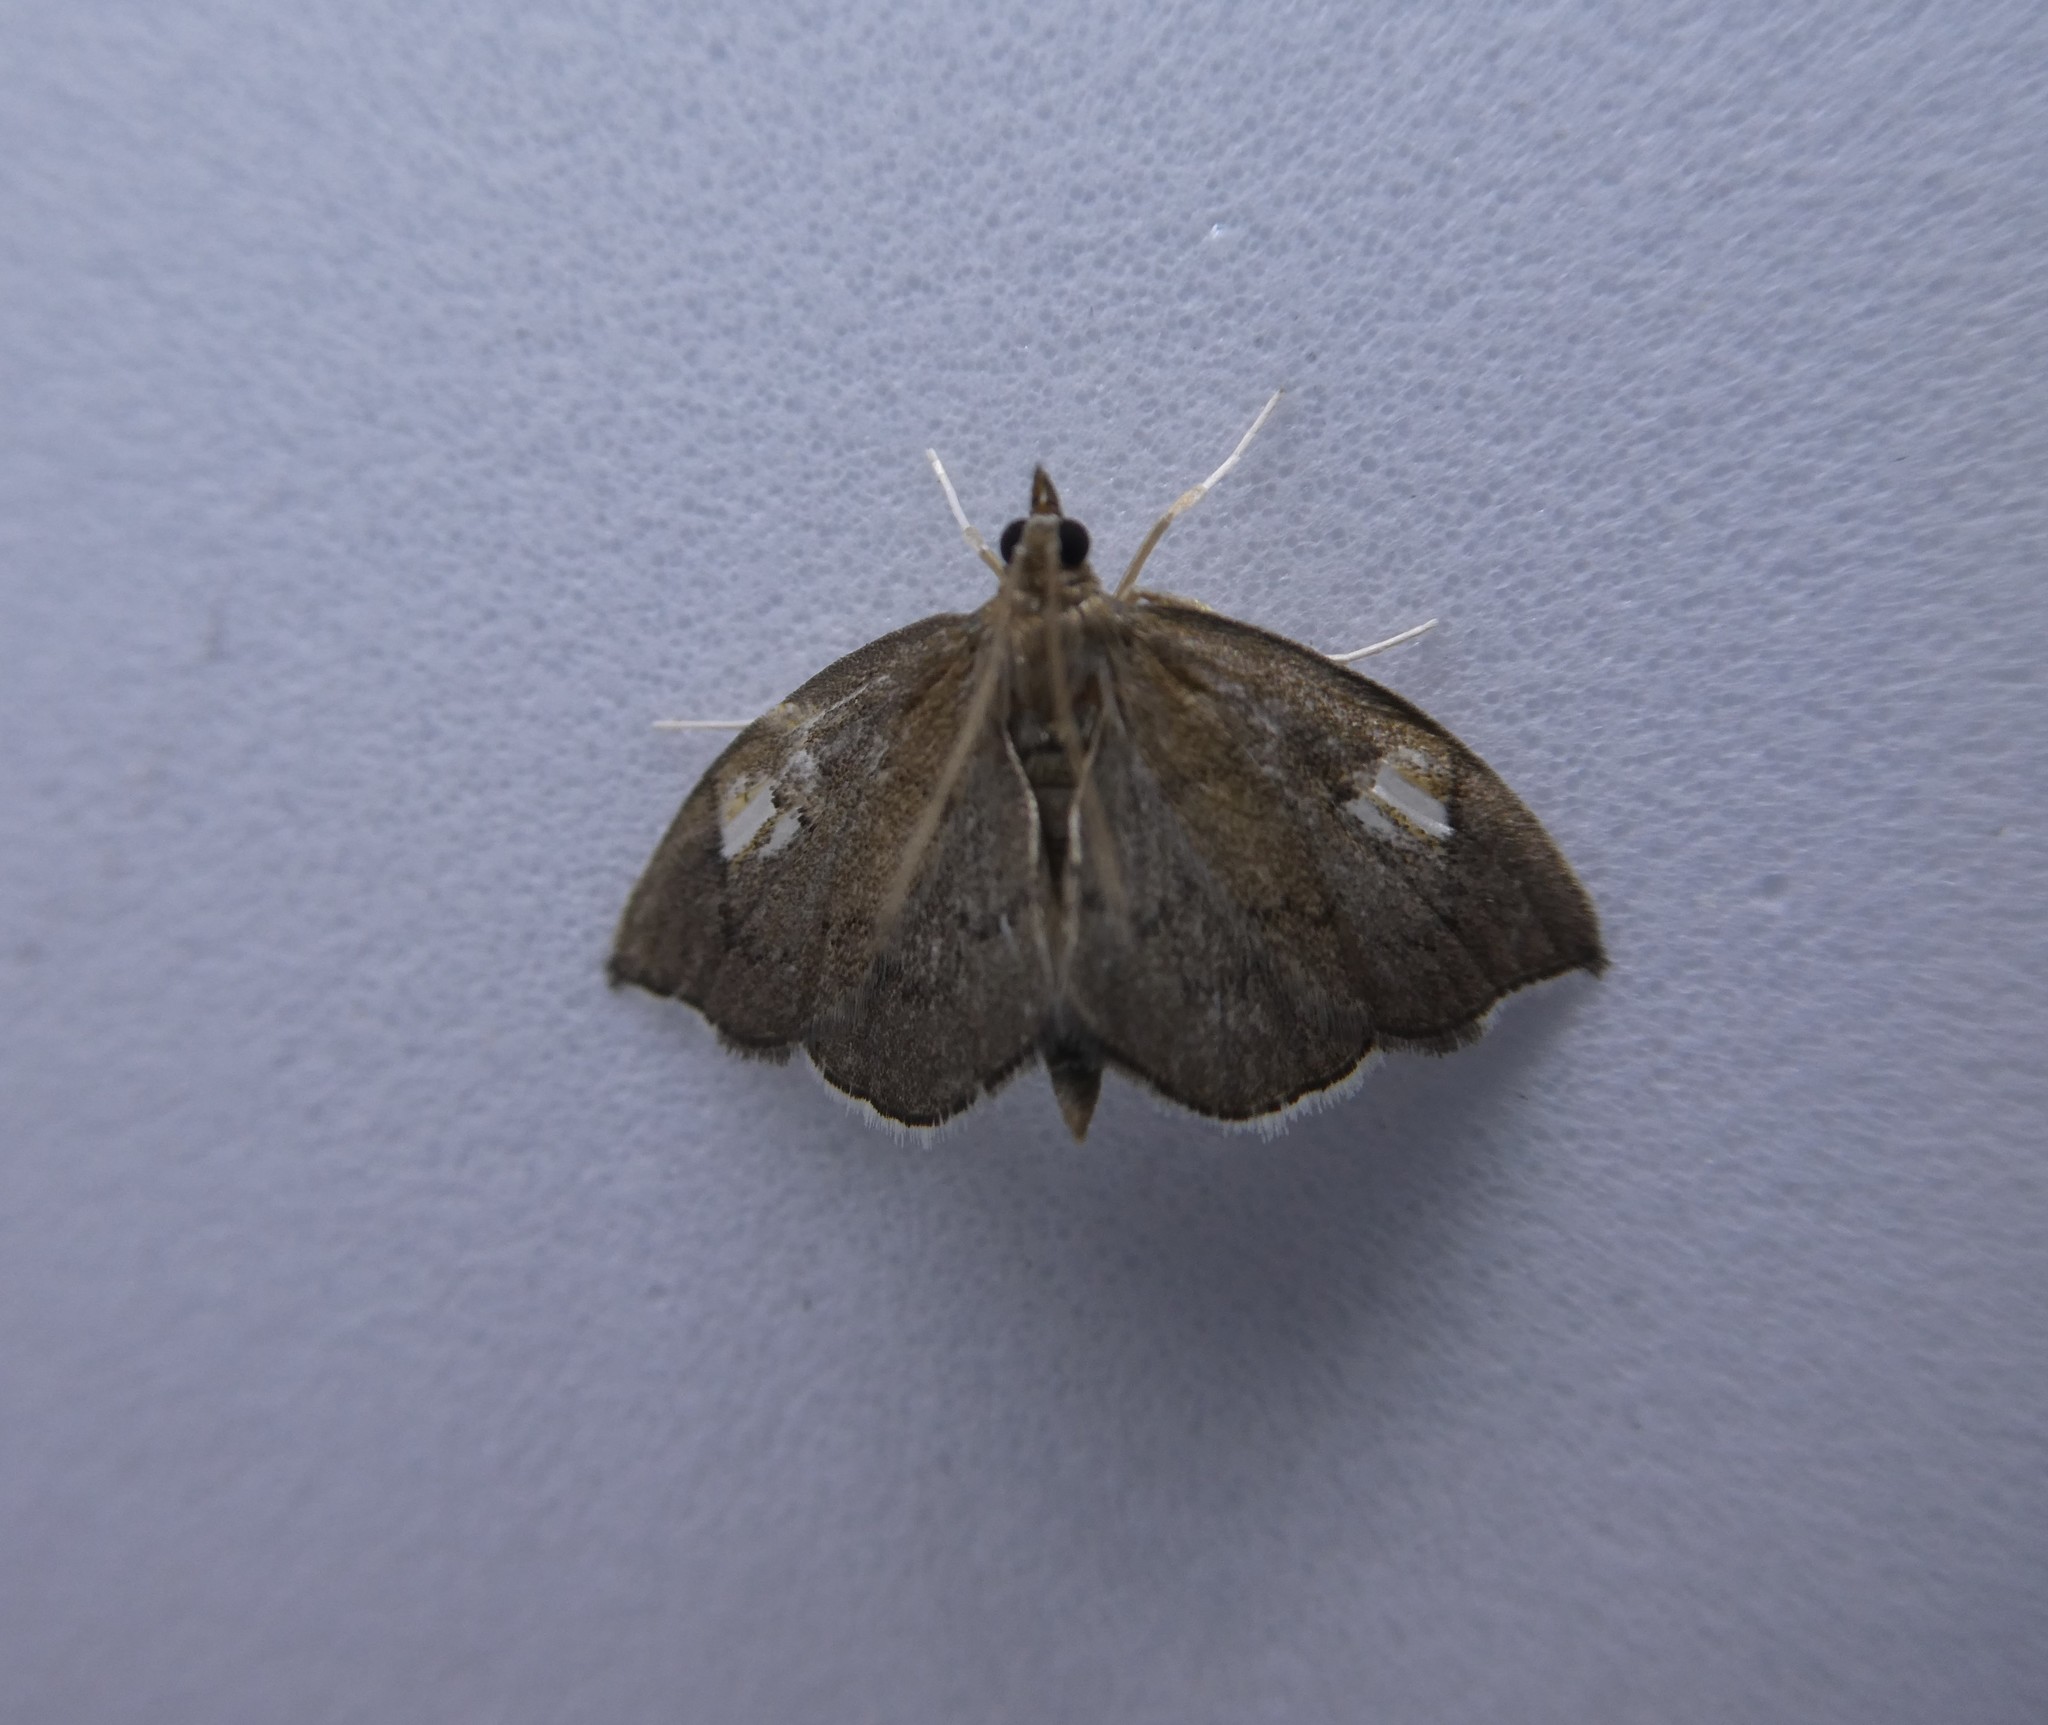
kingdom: Animalia
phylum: Arthropoda
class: Insecta
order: Lepidoptera
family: Crambidae
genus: Perispasta
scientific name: Perispasta caeculalis
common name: Titian peale's moth
